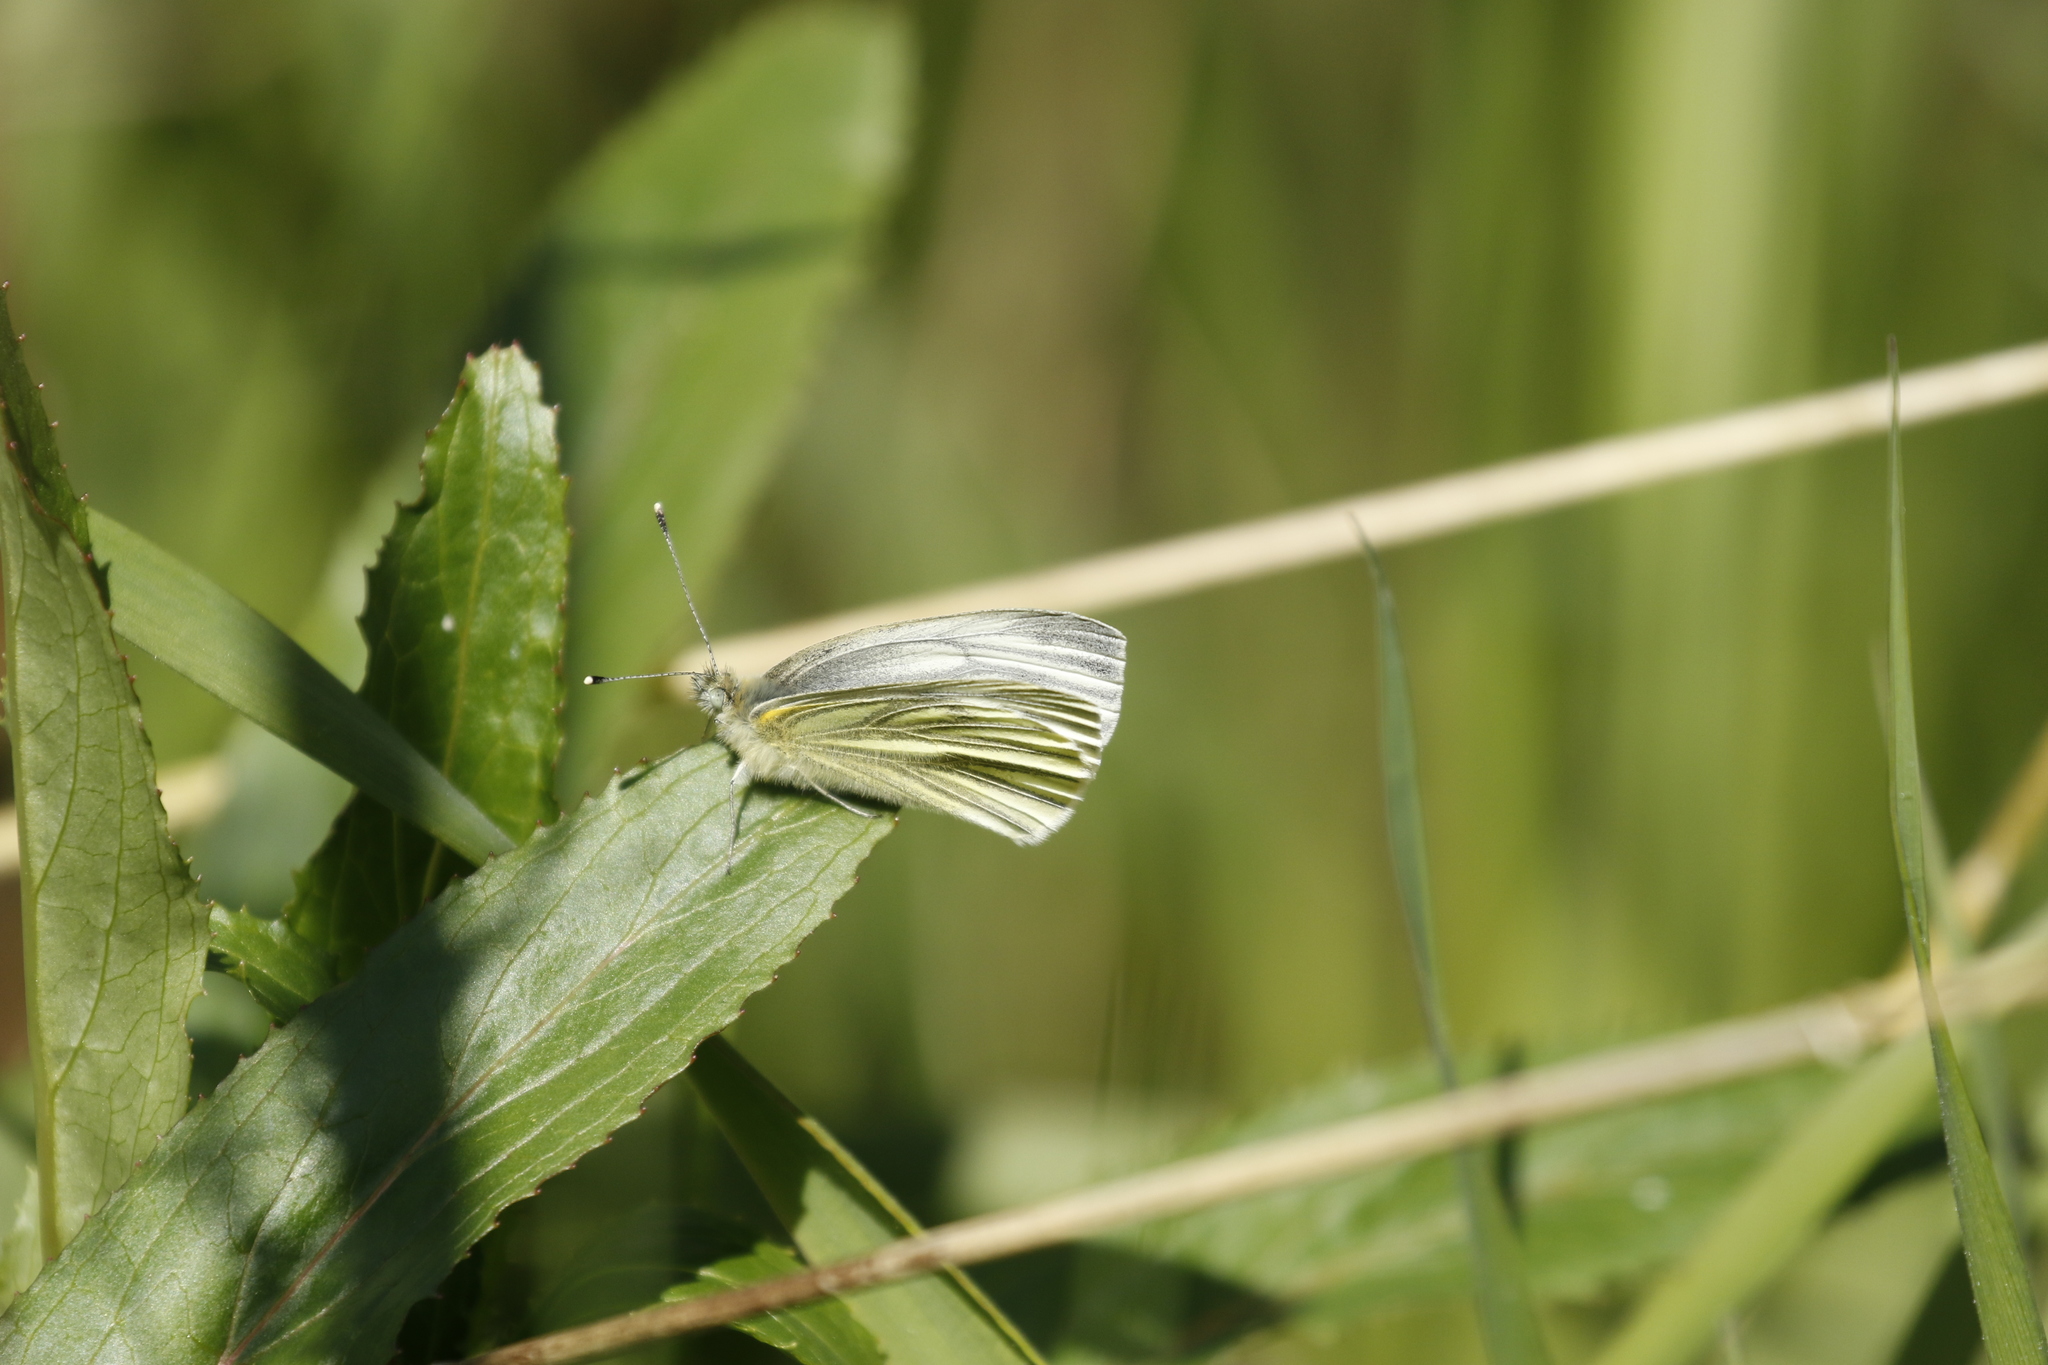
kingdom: Animalia
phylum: Arthropoda
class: Insecta
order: Lepidoptera
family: Pieridae
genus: Pieris
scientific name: Pieris napi
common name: Green-veined white
